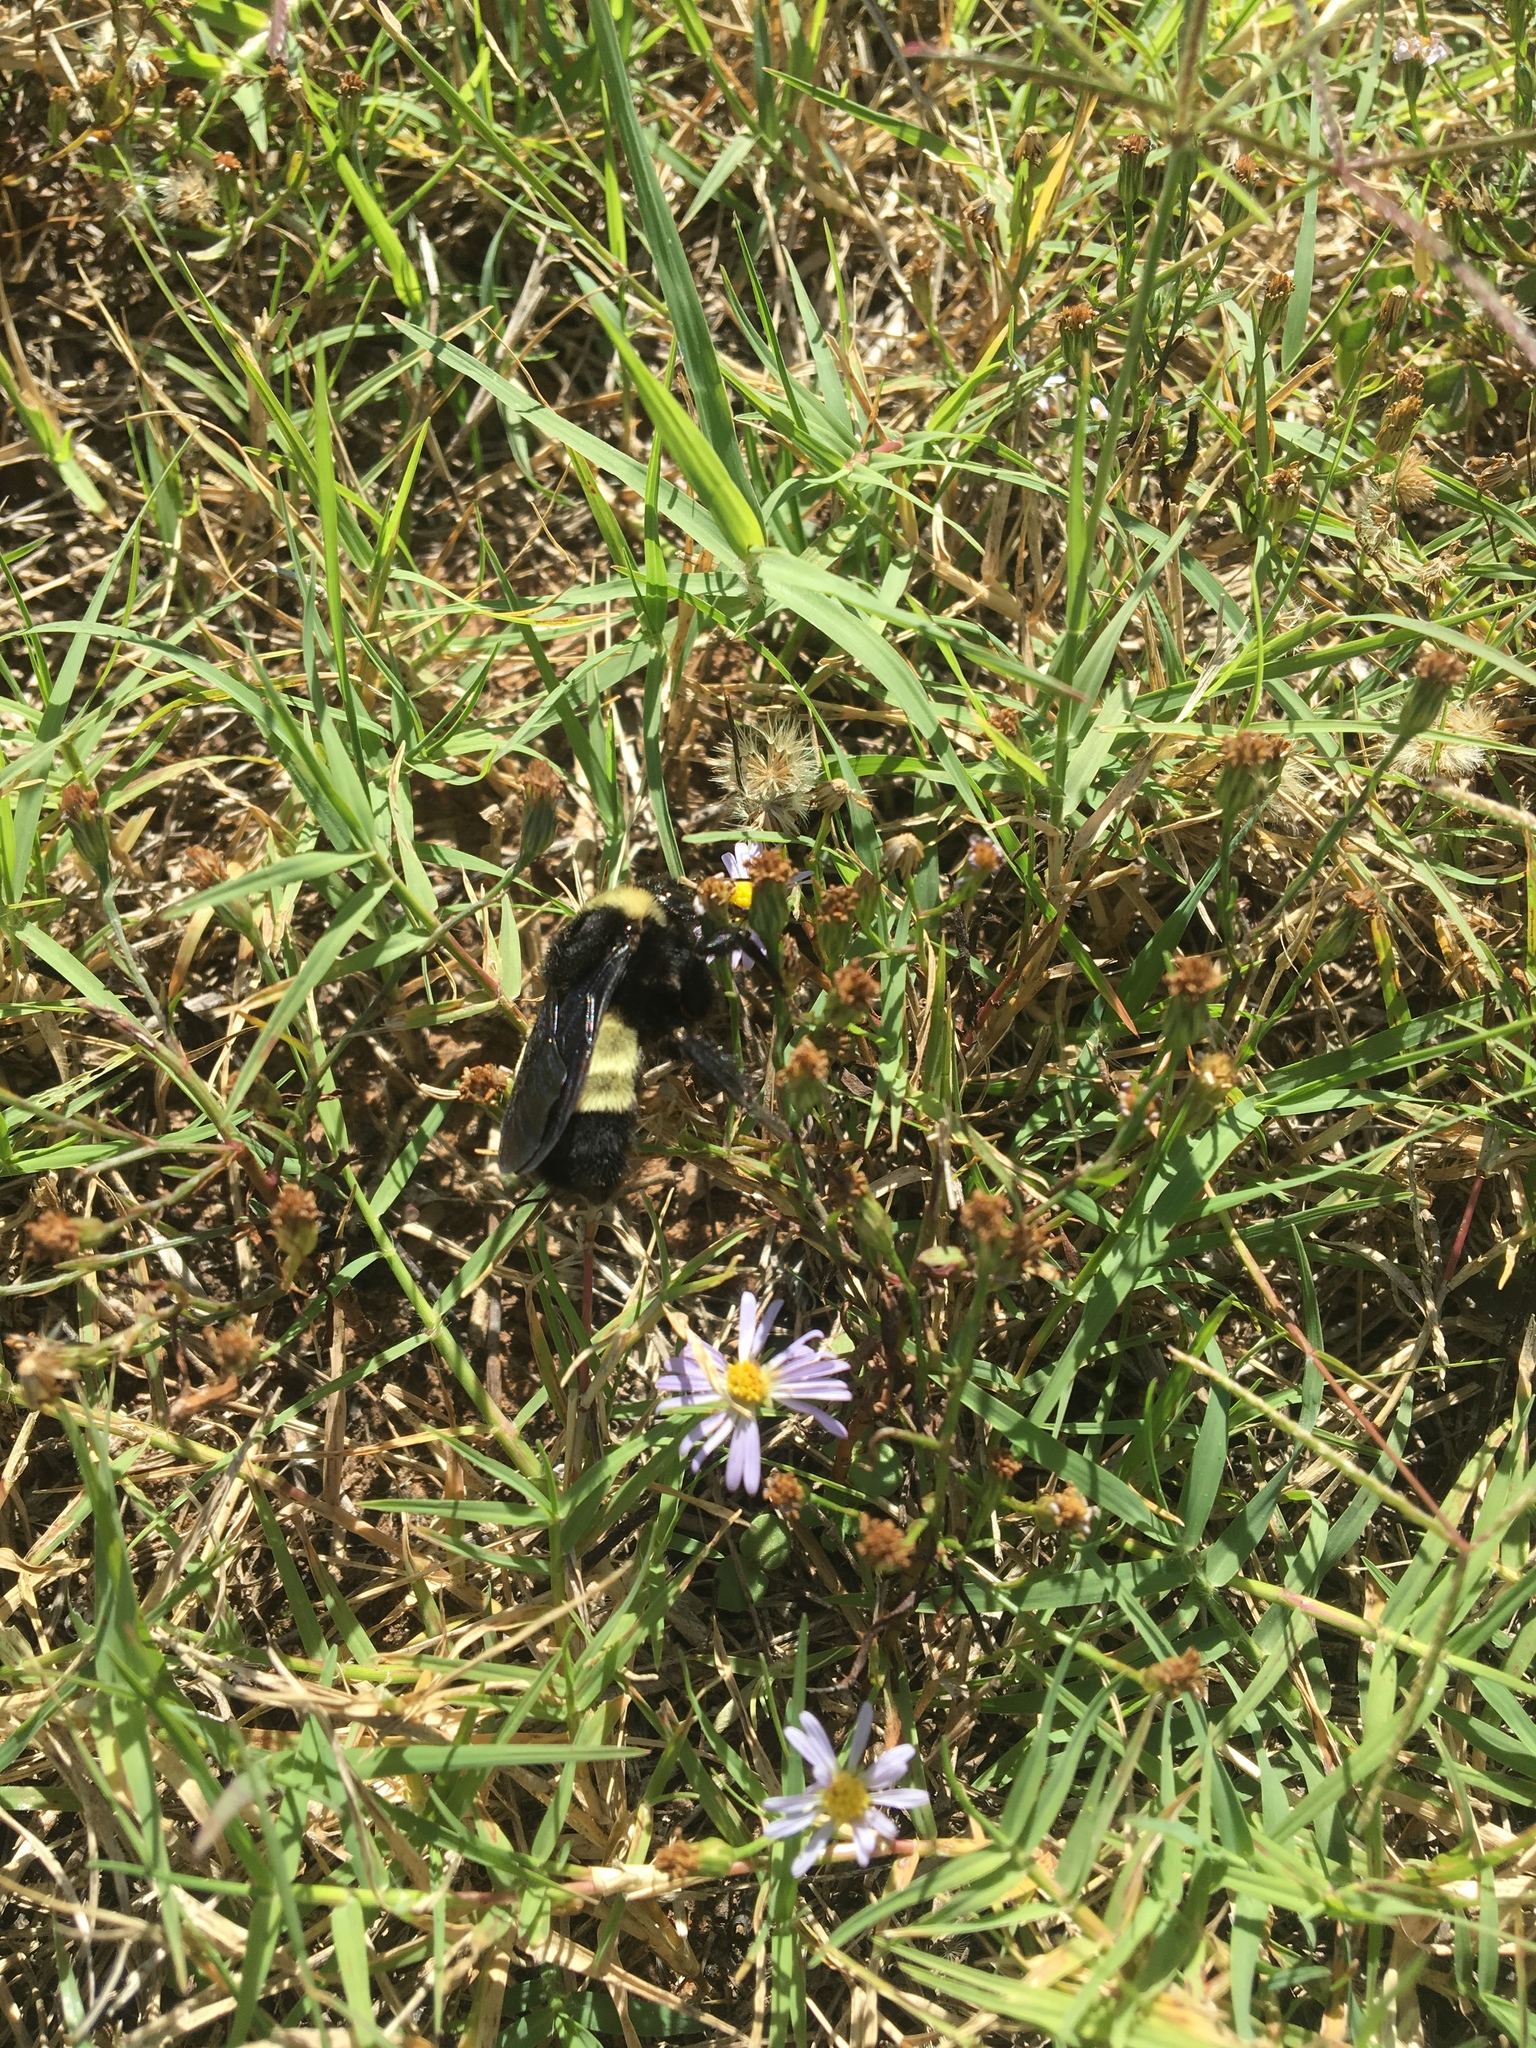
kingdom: Animalia
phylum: Arthropoda
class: Insecta
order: Hymenoptera
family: Apidae
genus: Bombus
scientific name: Bombus pensylvanicus
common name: Bumble bee
